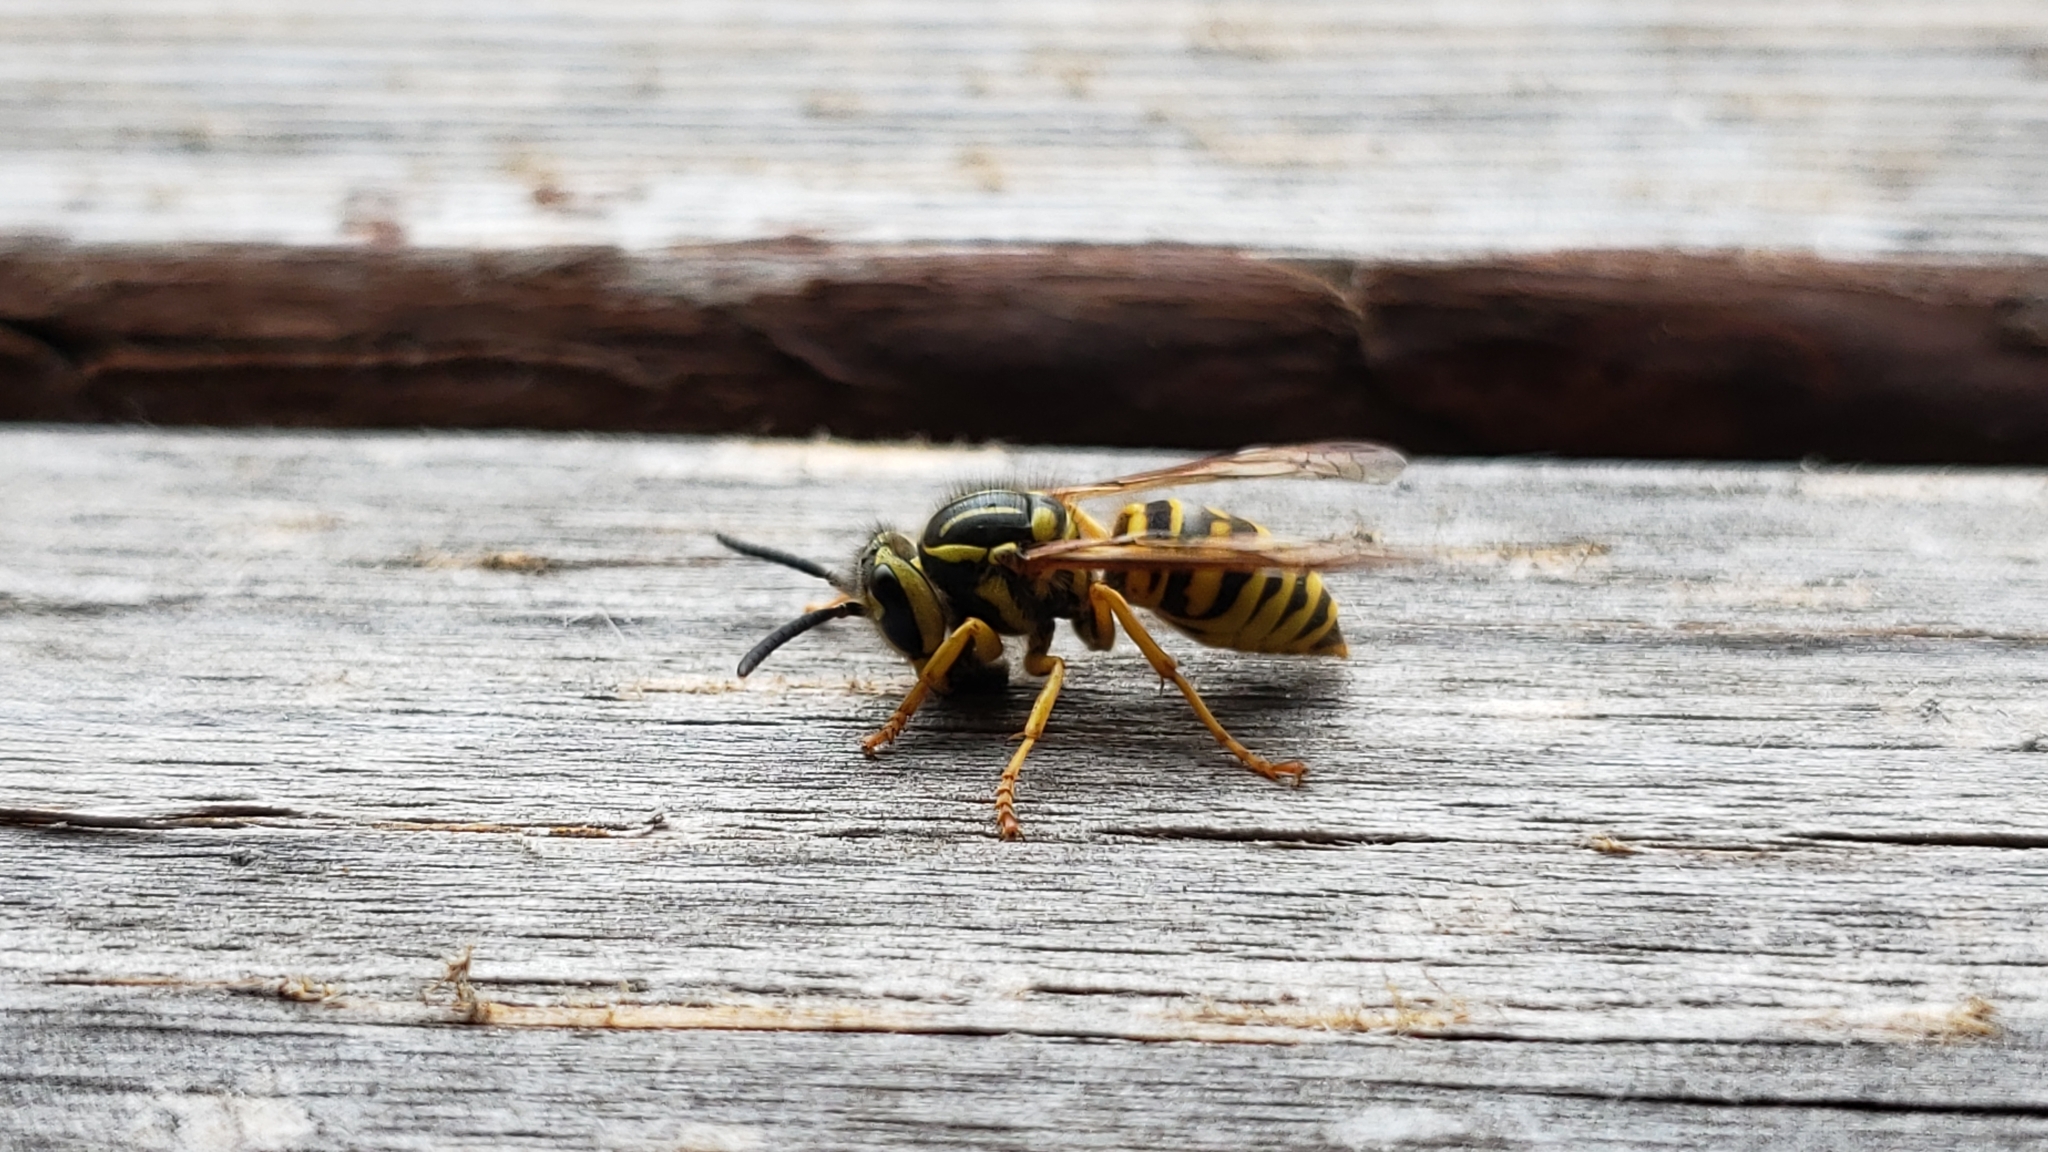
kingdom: Animalia
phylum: Arthropoda
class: Insecta
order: Hymenoptera
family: Vespidae
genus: Vespula
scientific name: Vespula squamosa
